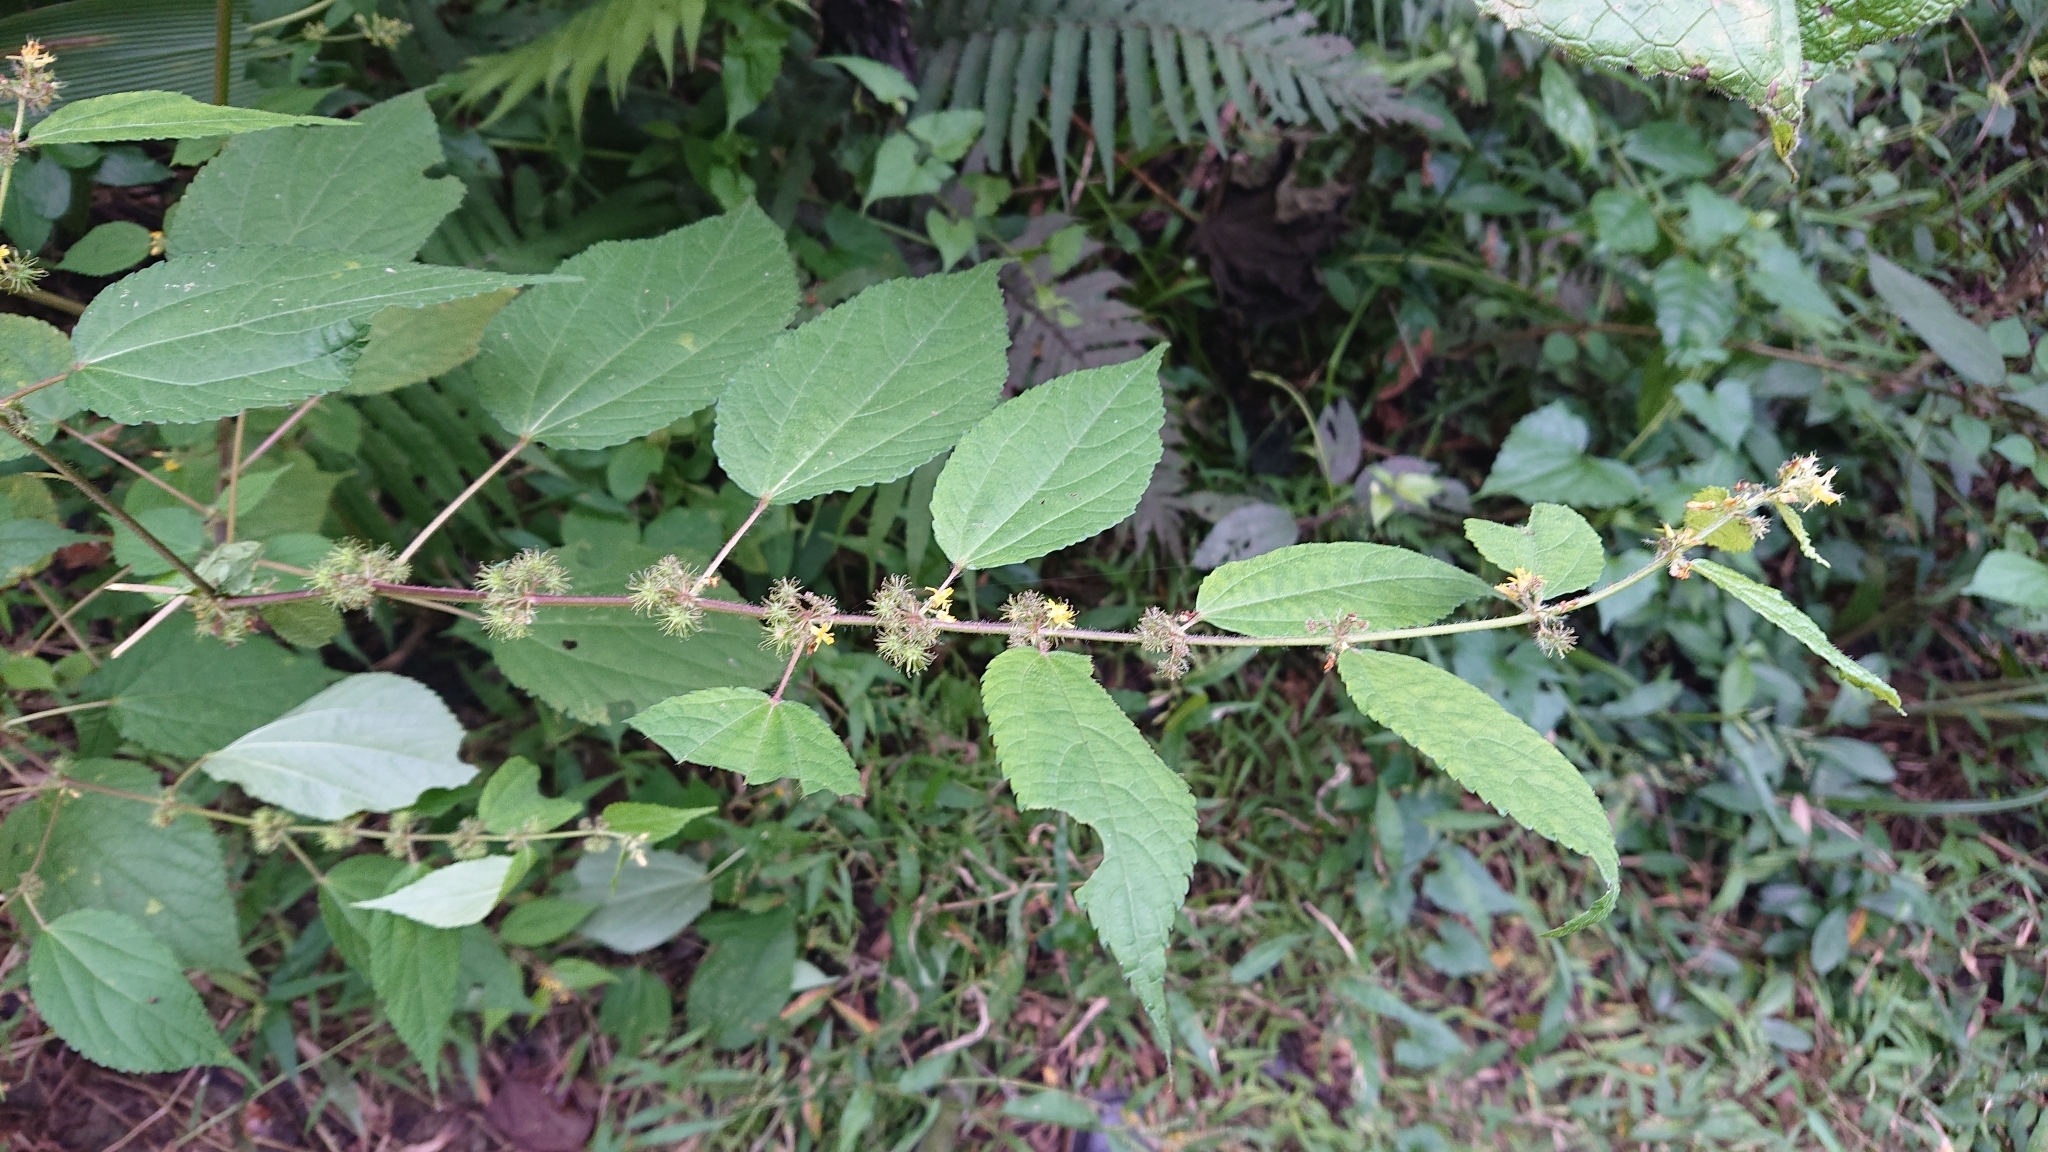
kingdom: Plantae
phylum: Tracheophyta
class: Magnoliopsida
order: Malvales
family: Malvaceae
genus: Triumfetta
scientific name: Triumfetta pilosa
